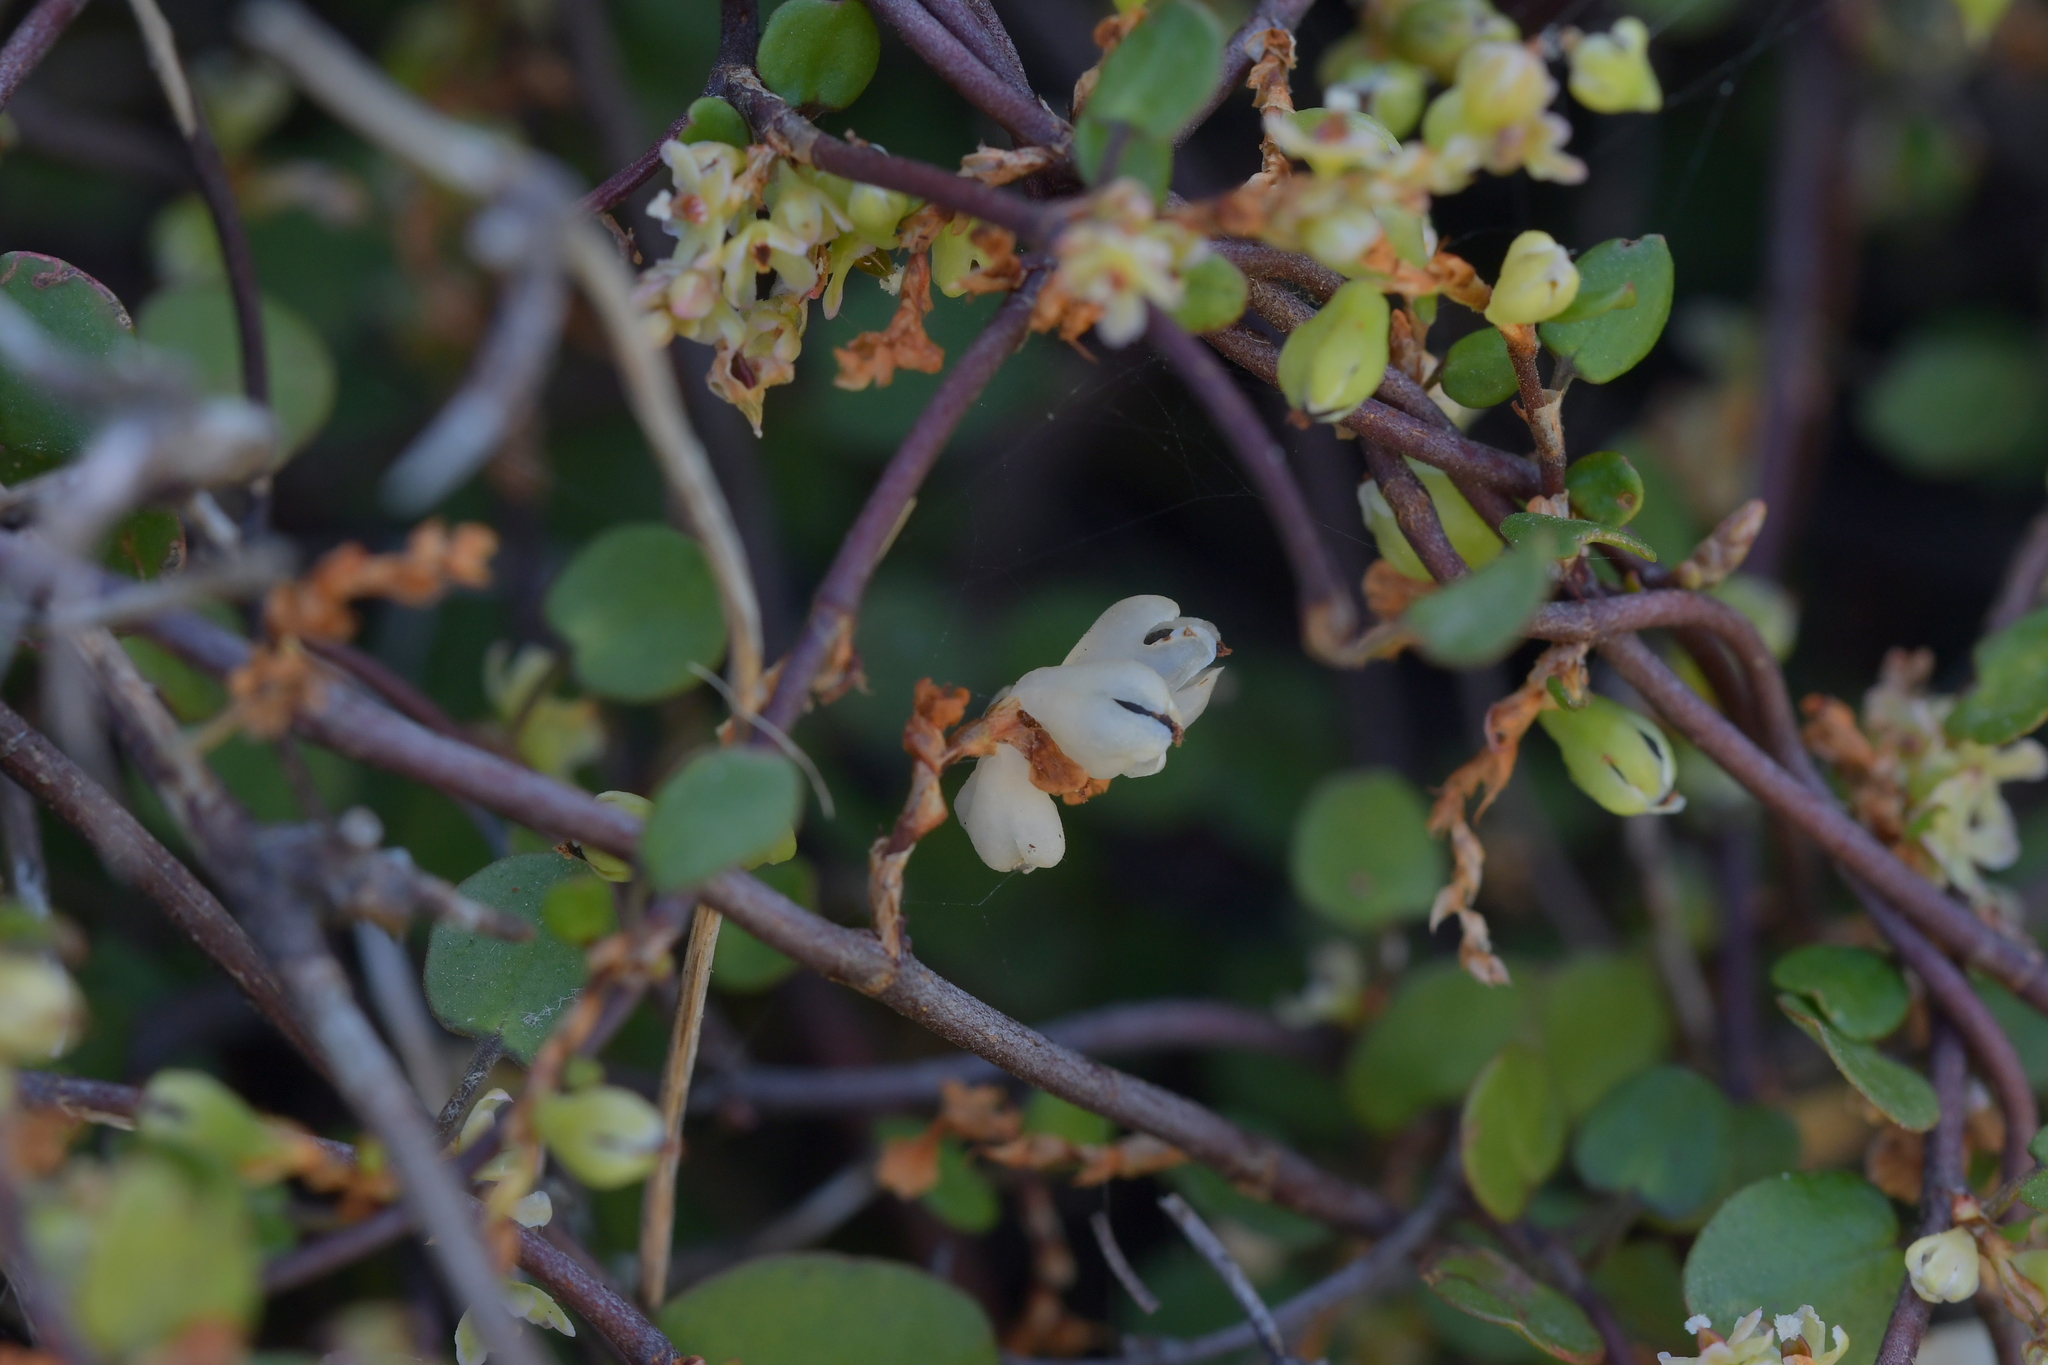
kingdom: Plantae
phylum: Tracheophyta
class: Magnoliopsida
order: Caryophyllales
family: Polygonaceae
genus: Muehlenbeckia
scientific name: Muehlenbeckia complexa
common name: Wireplant
